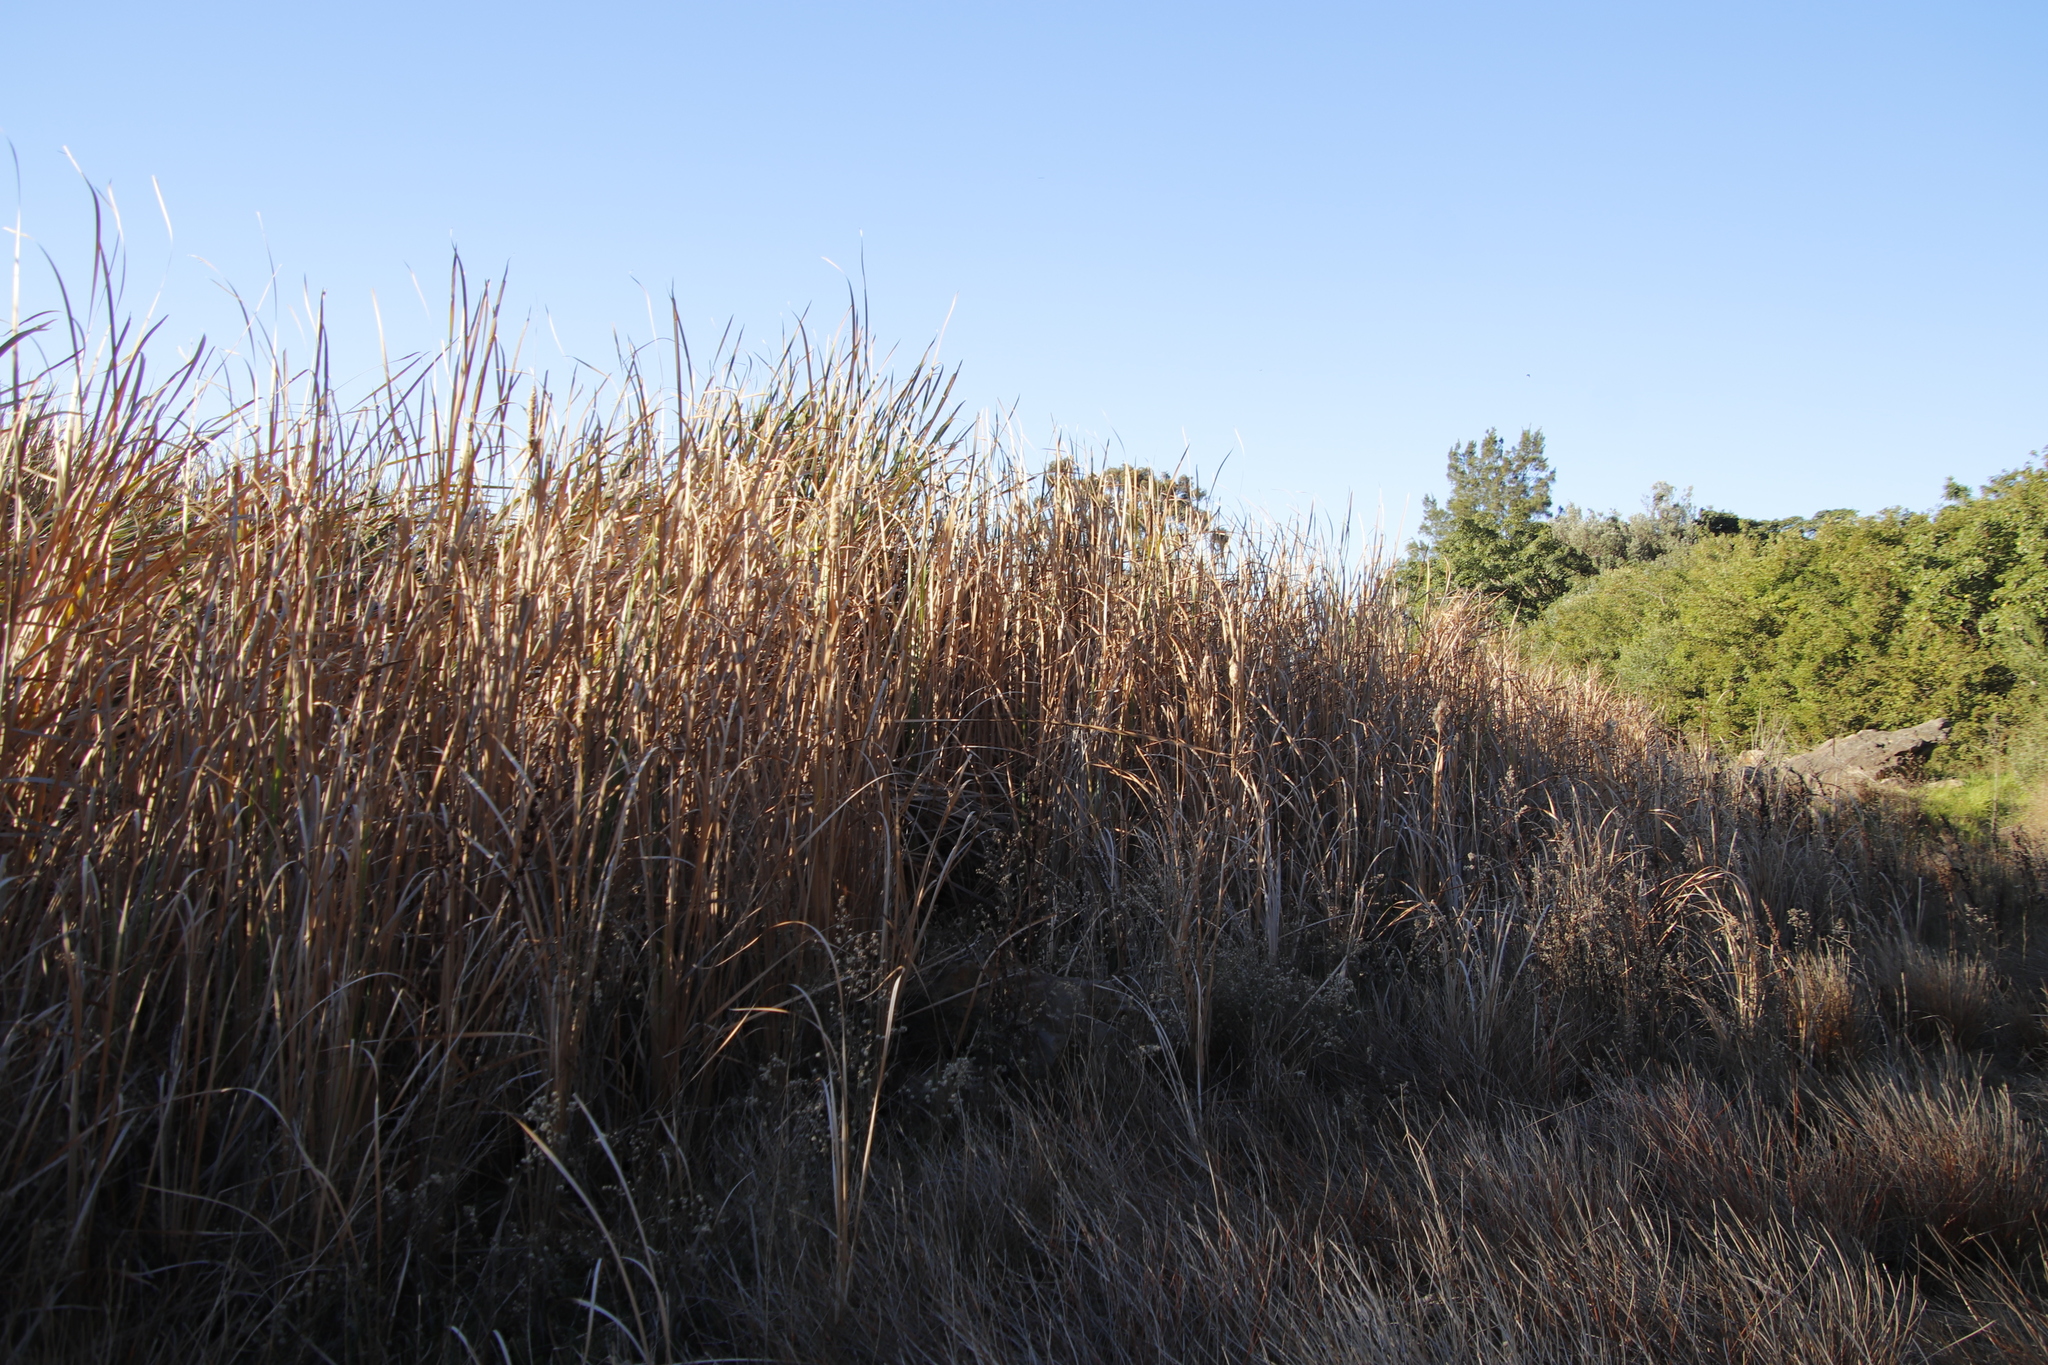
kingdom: Plantae
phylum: Tracheophyta
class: Liliopsida
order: Poales
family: Typhaceae
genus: Typha
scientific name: Typha capensis
